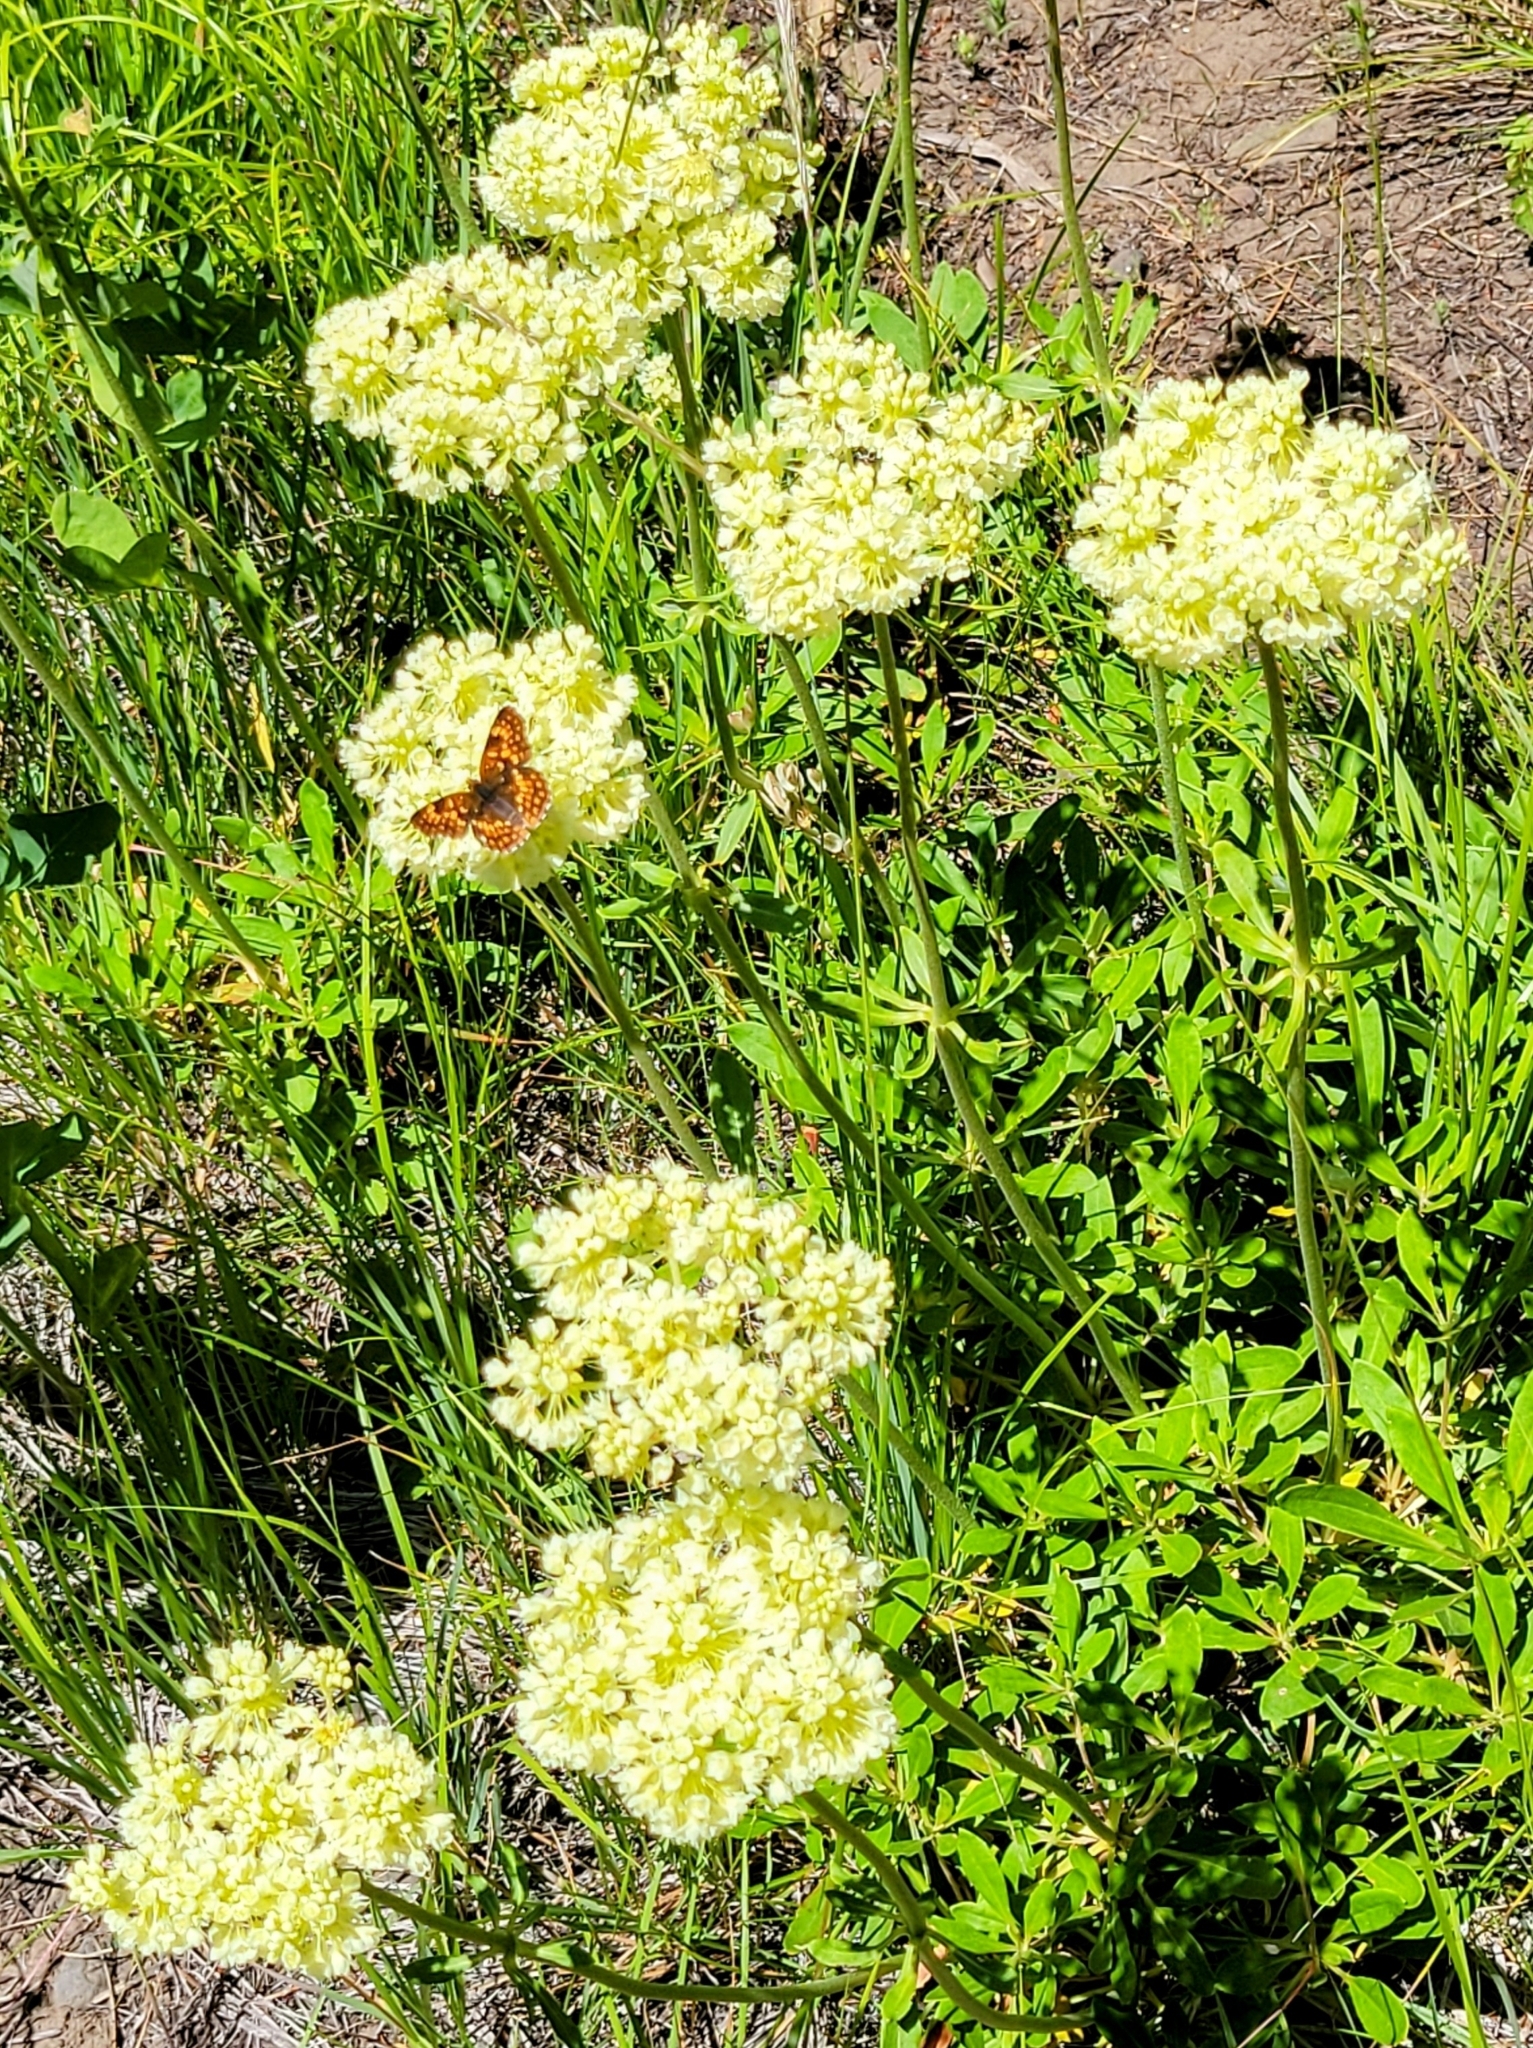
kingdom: Plantae
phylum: Tracheophyta
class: Magnoliopsida
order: Caryophyllales
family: Polygonaceae
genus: Eriogonum
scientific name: Eriogonum heracleoides
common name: Wyeth's buckwheat
